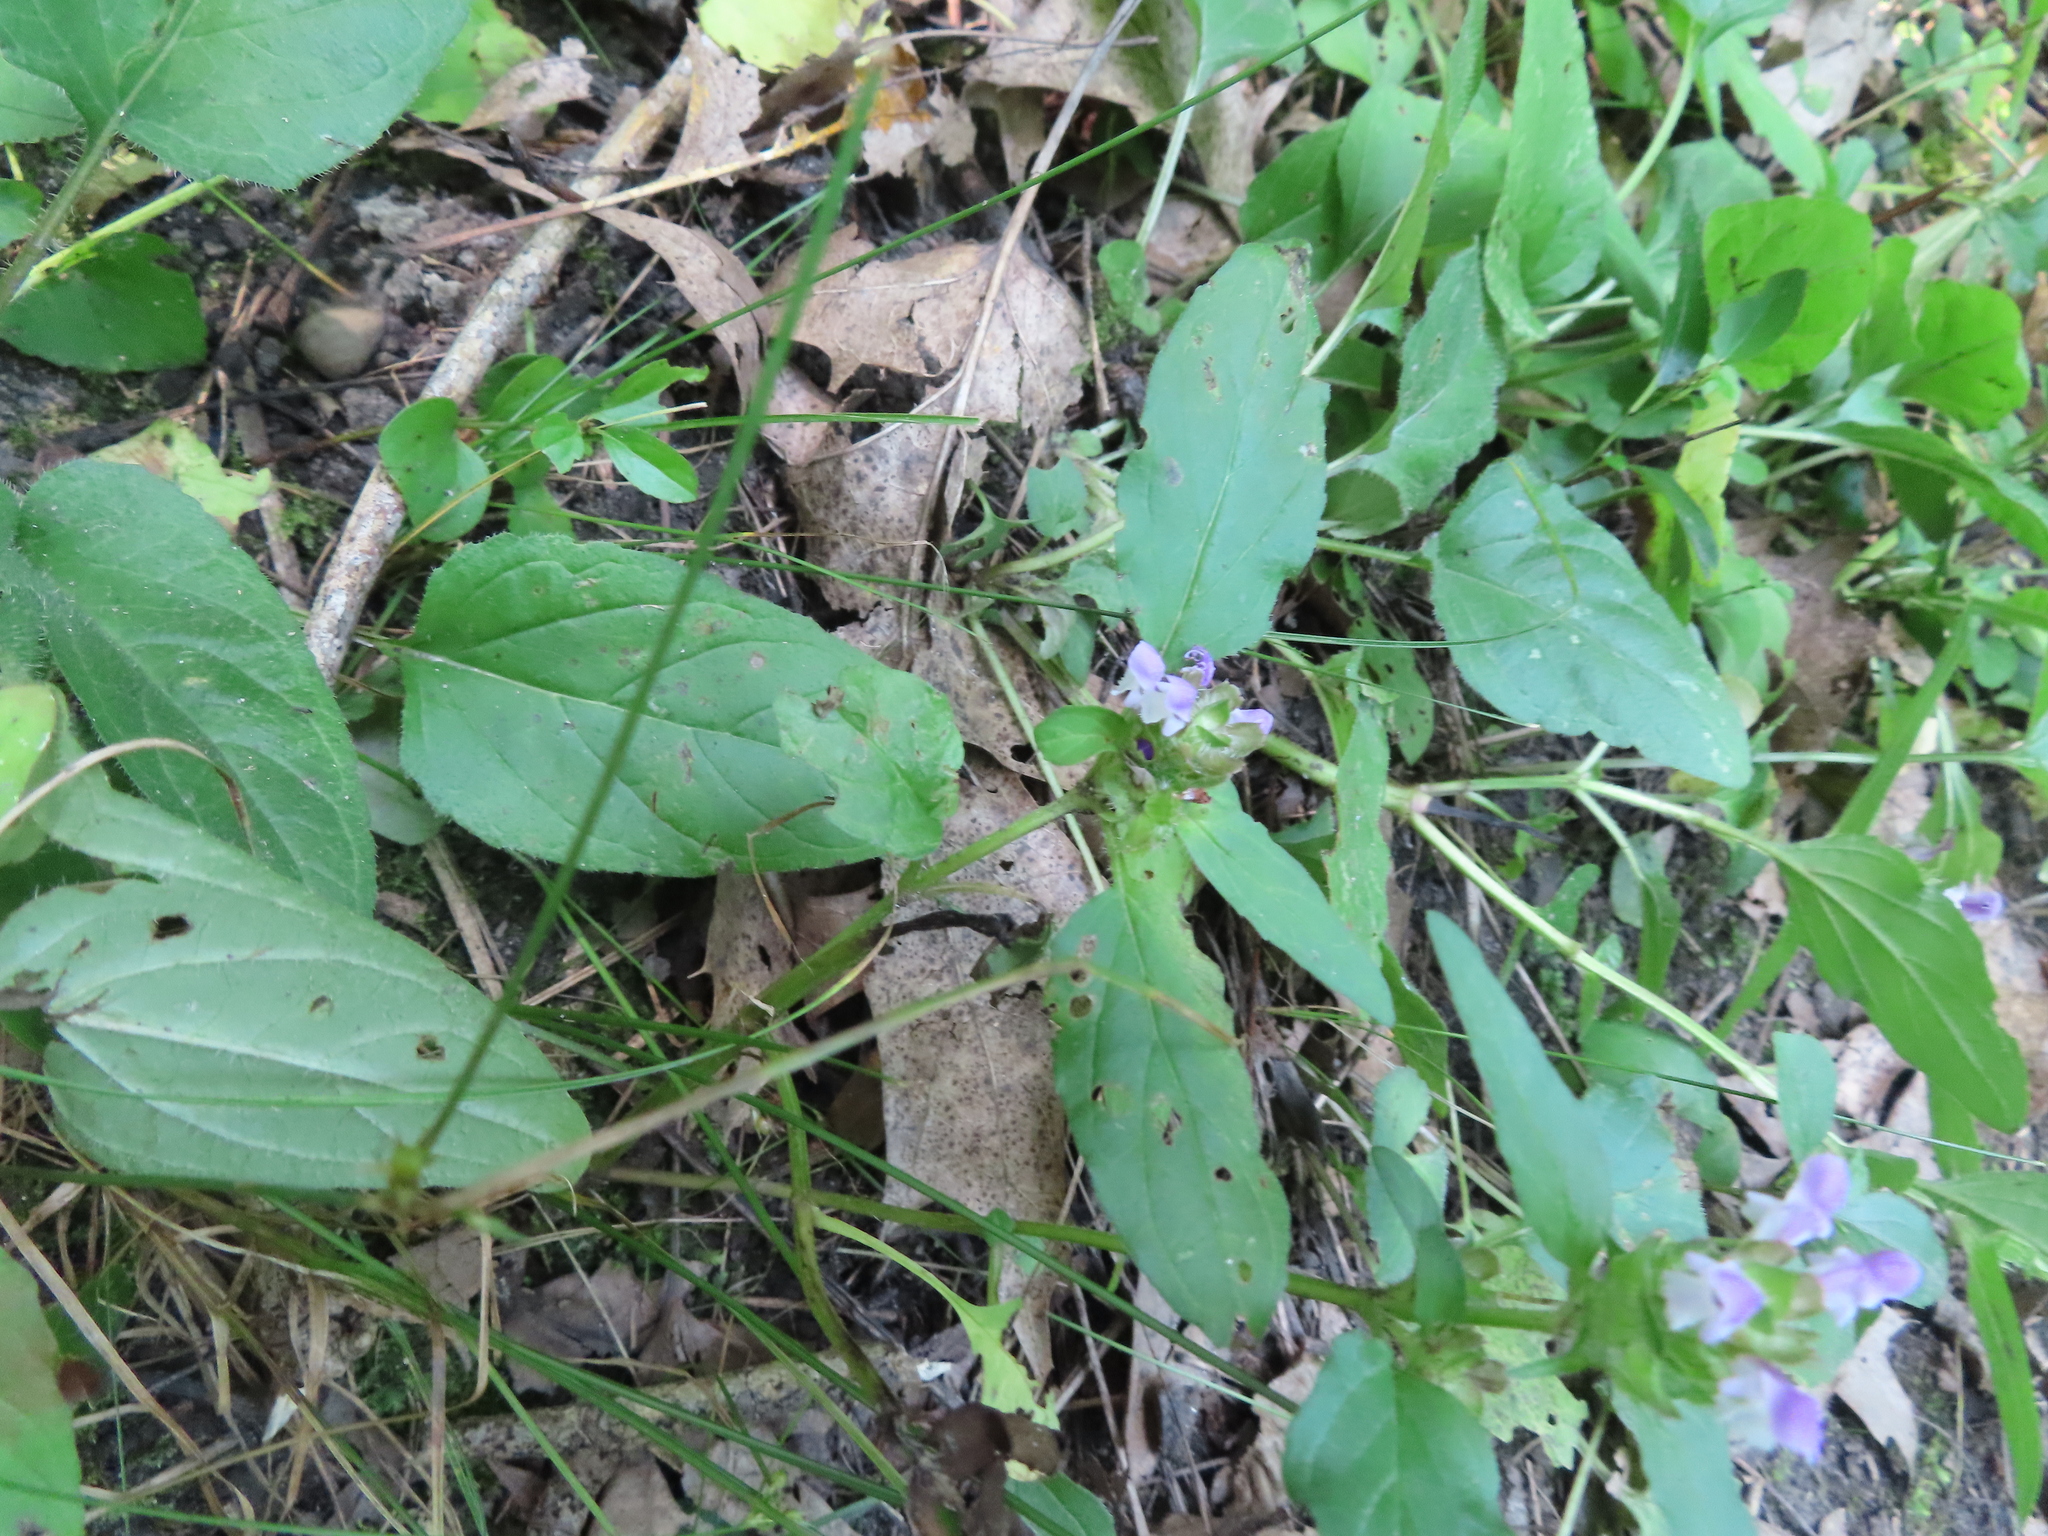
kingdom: Plantae
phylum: Tracheophyta
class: Magnoliopsida
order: Lamiales
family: Lamiaceae
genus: Prunella
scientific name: Prunella vulgaris
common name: Heal-all
